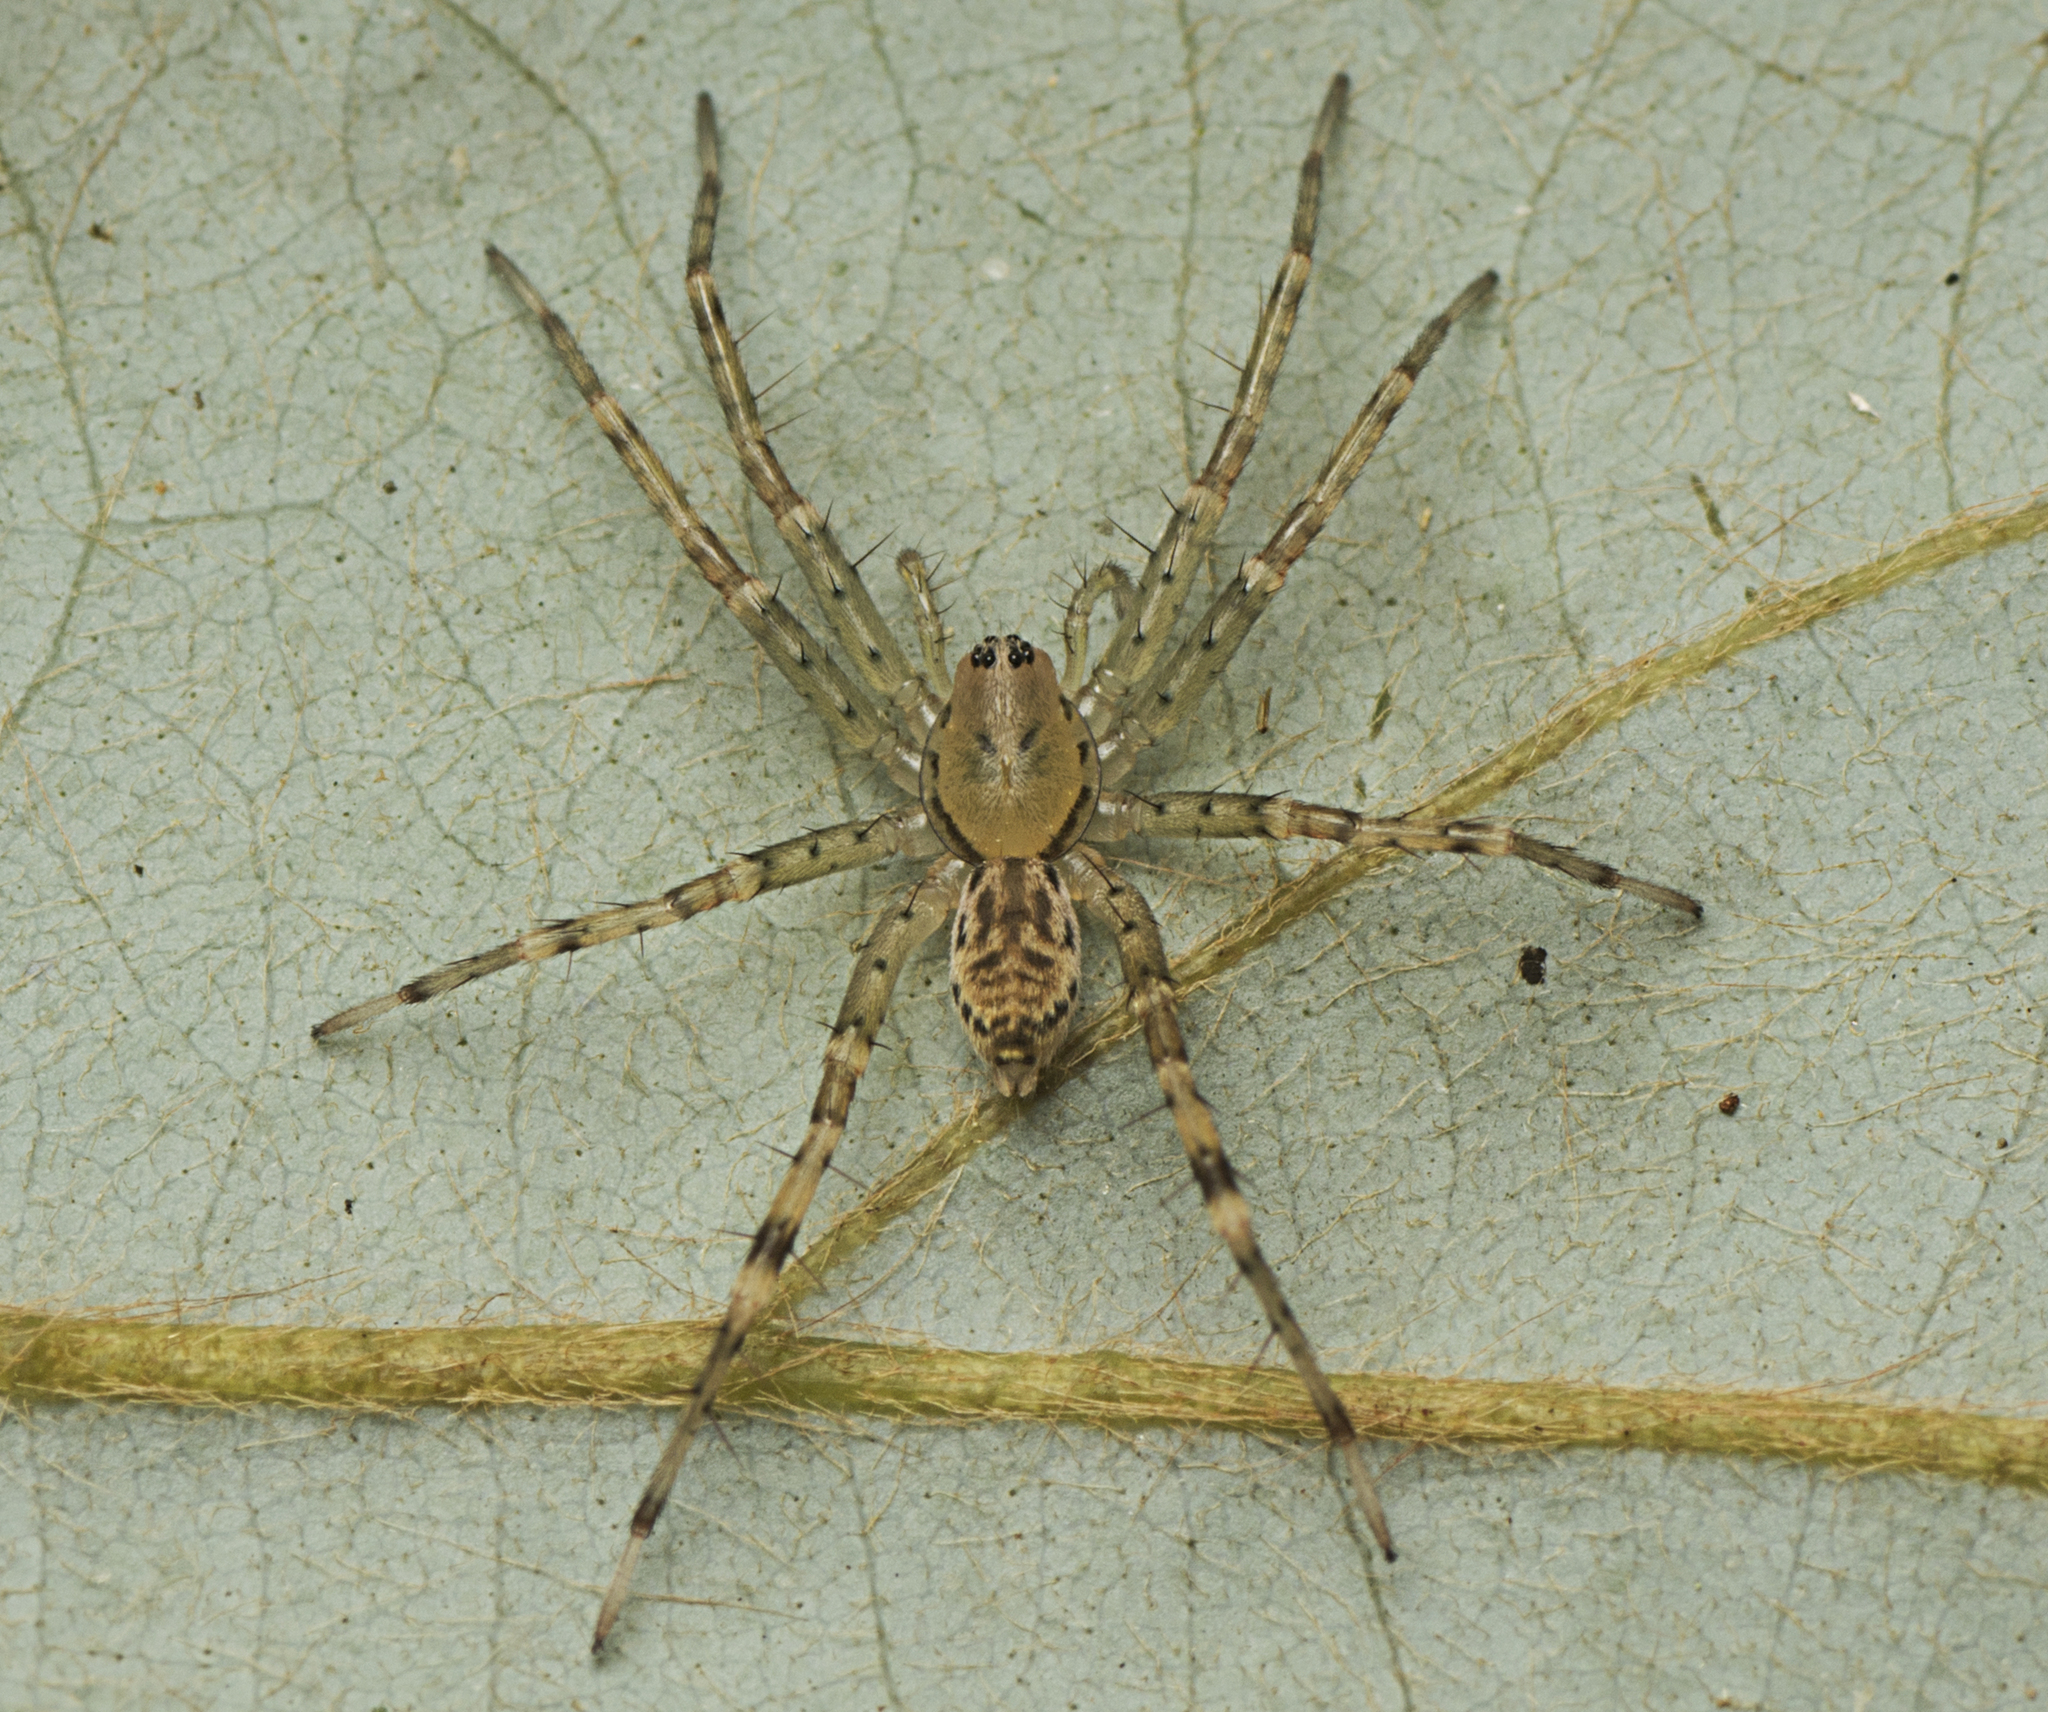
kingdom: Animalia
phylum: Arthropoda
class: Arachnida
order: Araneae
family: Corinnidae
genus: Copa
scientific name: Copa kabana
